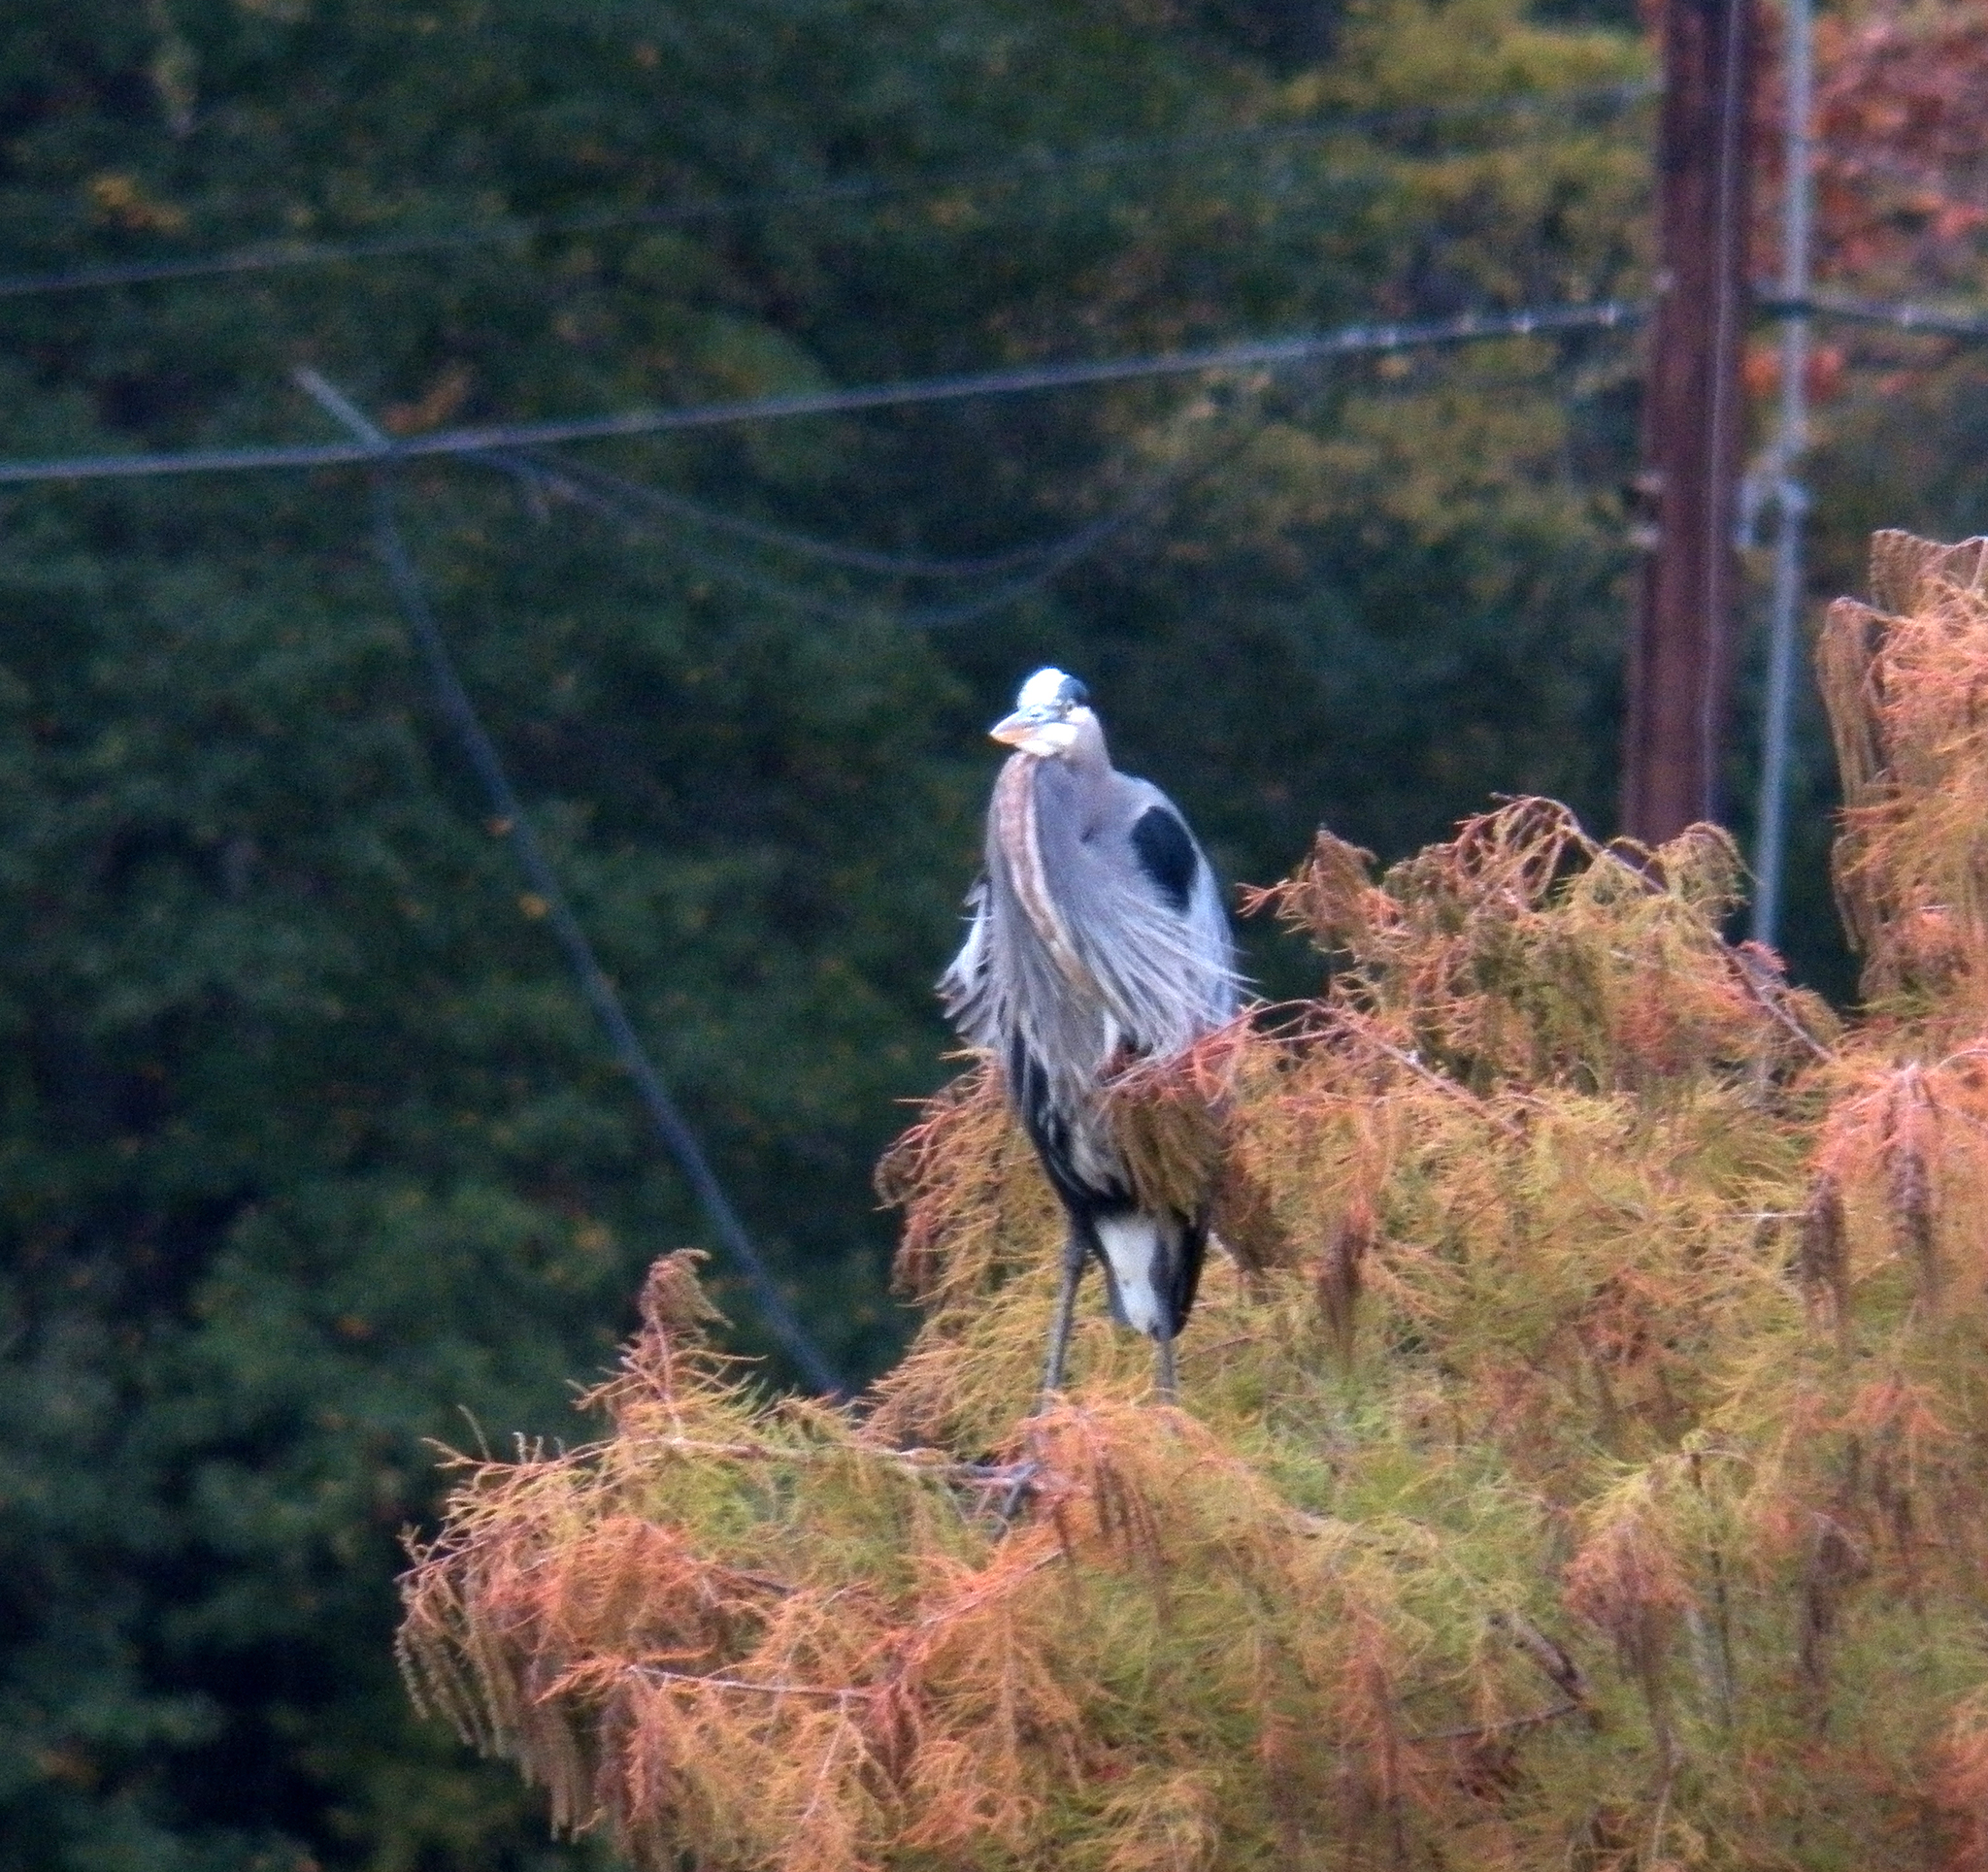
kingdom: Animalia
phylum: Chordata
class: Aves
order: Pelecaniformes
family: Ardeidae
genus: Ardea
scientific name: Ardea herodias
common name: Great blue heron
